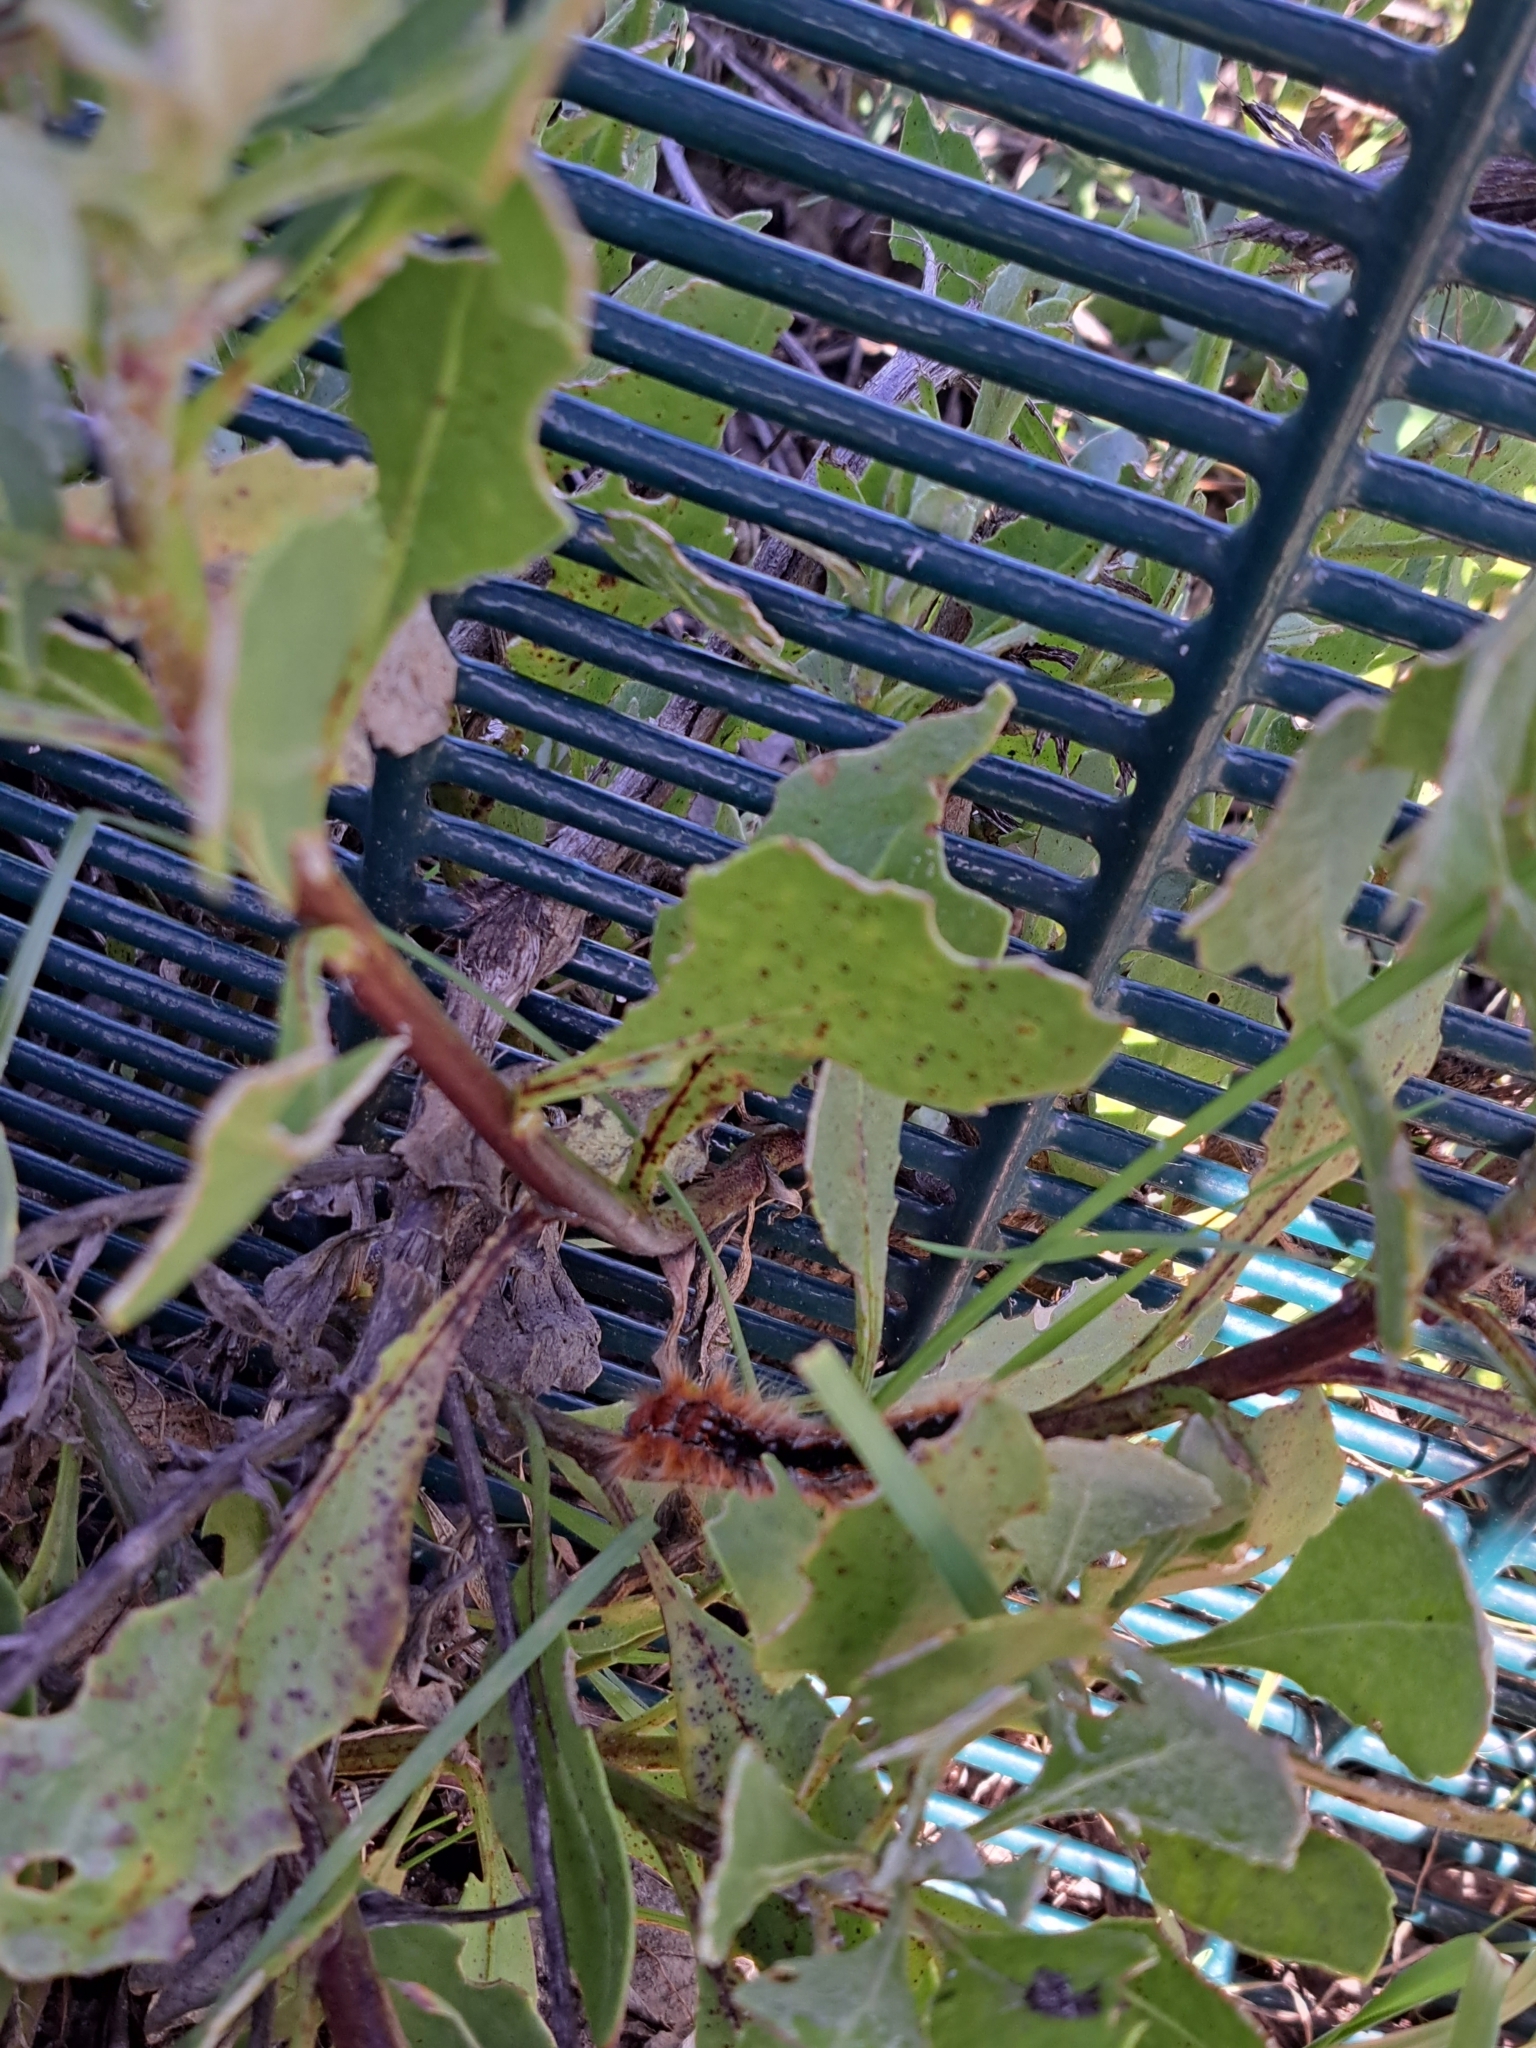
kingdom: Animalia
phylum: Arthropoda
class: Insecta
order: Lepidoptera
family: Lasiocampidae
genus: Eutricha
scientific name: Eutricha capensis
